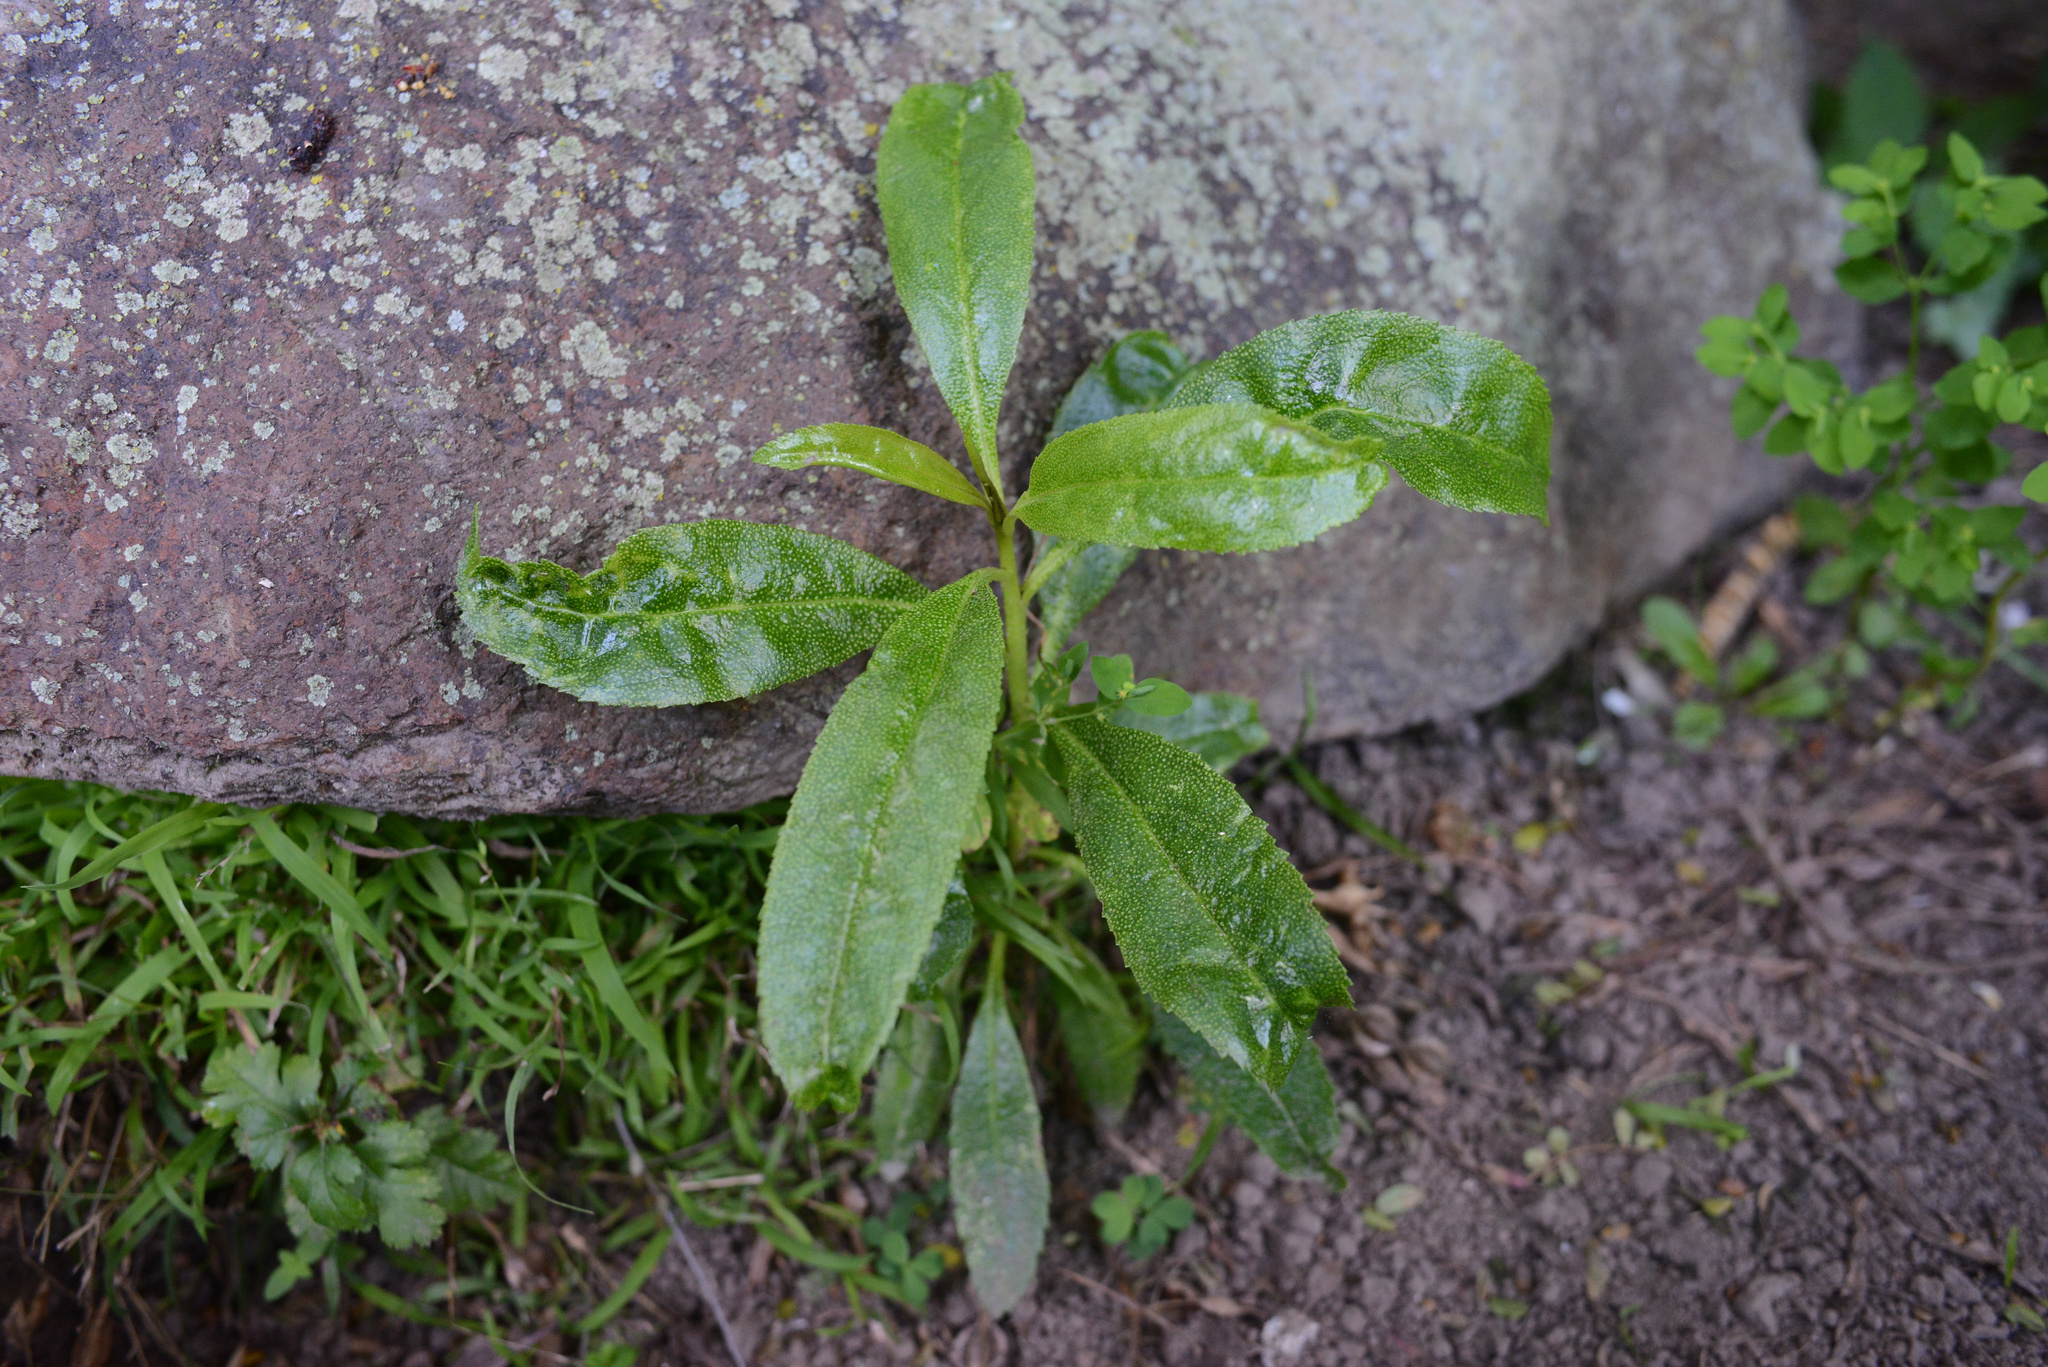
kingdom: Plantae
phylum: Tracheophyta
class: Magnoliopsida
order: Lamiales
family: Scrophulariaceae
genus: Myoporum
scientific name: Myoporum laetum
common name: Ngaio tree
